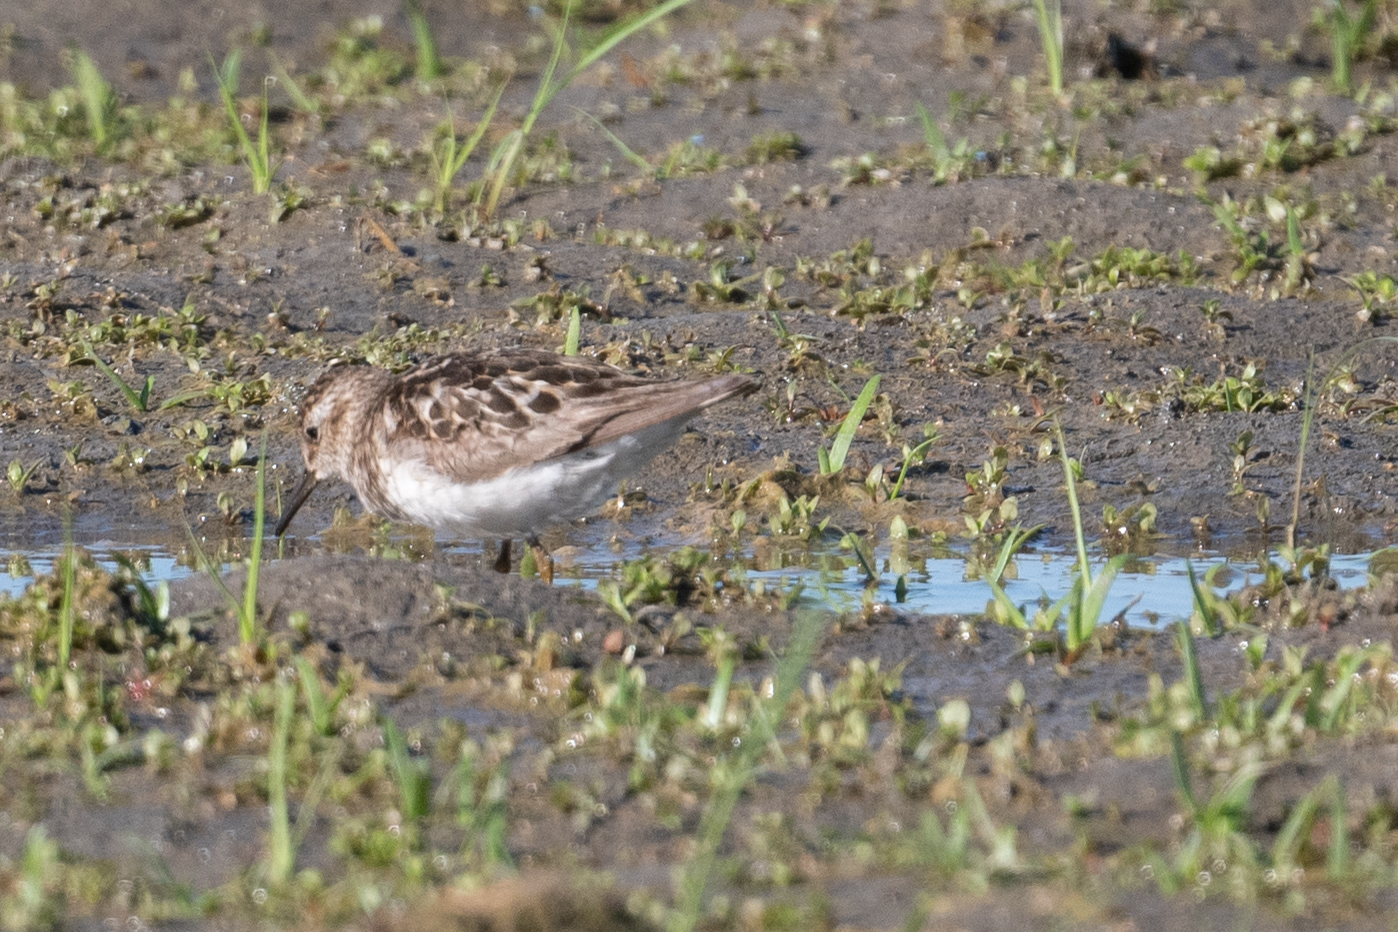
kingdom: Animalia
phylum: Chordata
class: Aves
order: Charadriiformes
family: Scolopacidae
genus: Calidris
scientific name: Calidris minutilla
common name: Least sandpiper
